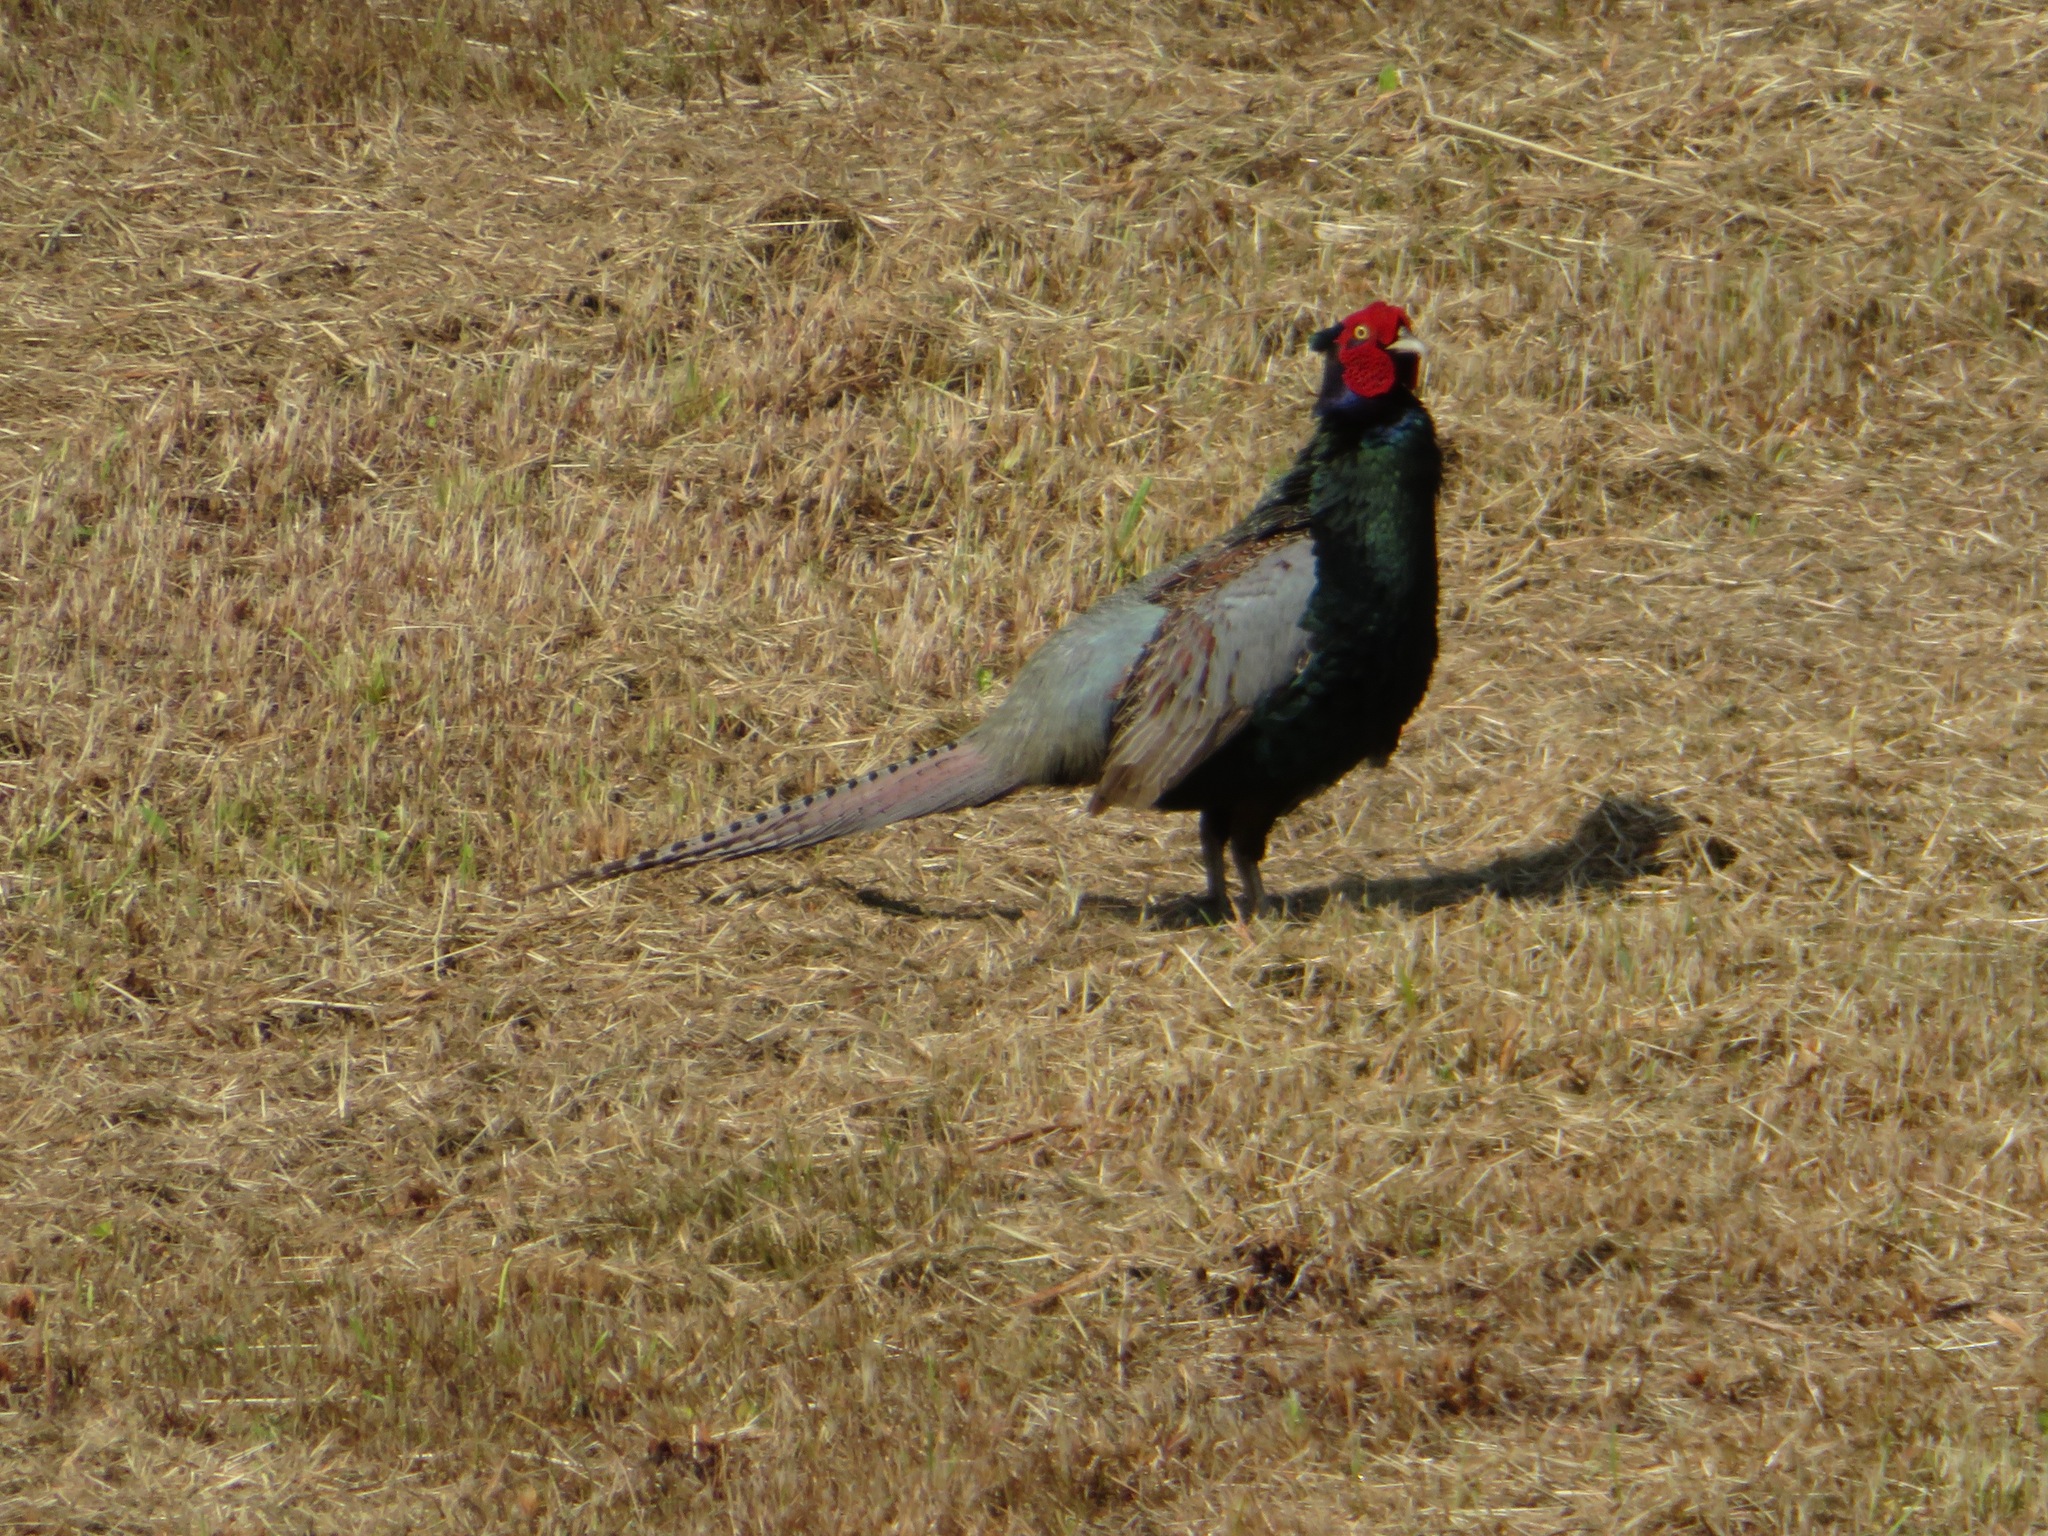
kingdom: Animalia
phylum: Chordata
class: Aves
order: Galliformes
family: Phasianidae
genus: Phasianus
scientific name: Phasianus versicolor
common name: Green pheasant
